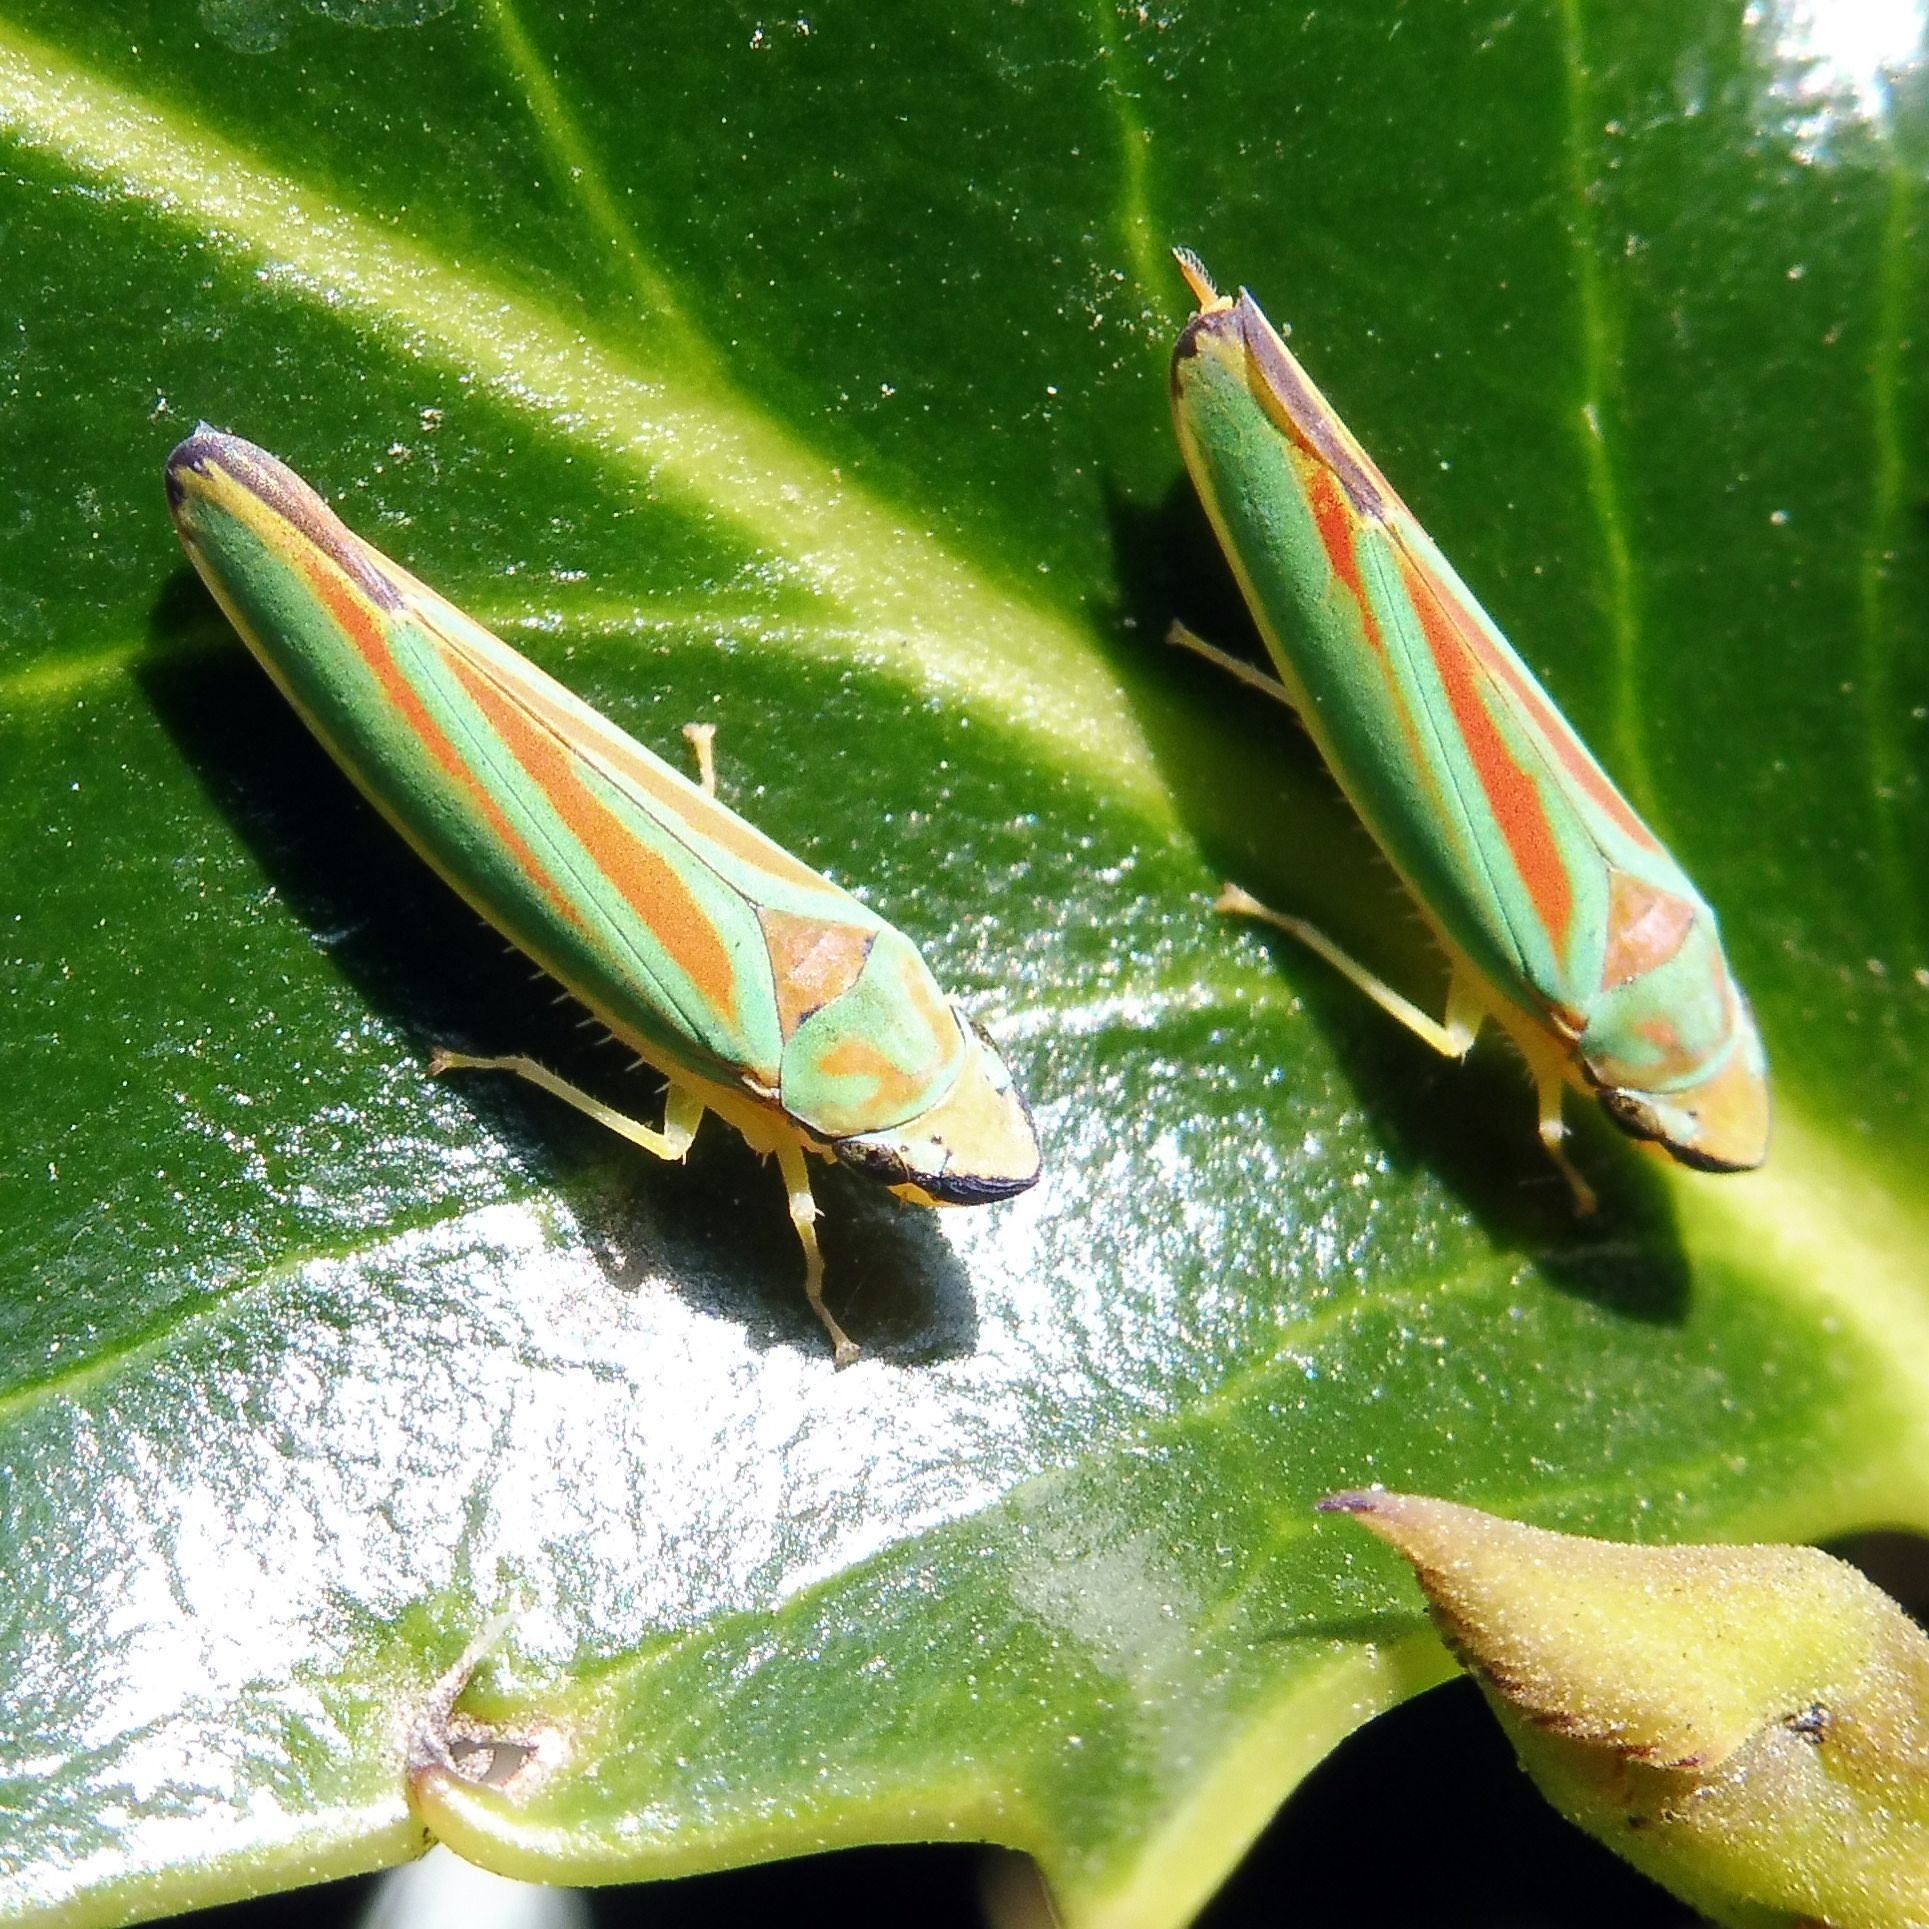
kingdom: Animalia
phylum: Arthropoda
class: Insecta
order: Hemiptera
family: Cicadellidae
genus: Graphocephala
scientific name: Graphocephala fennahi
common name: Rhododendron leafhopper
